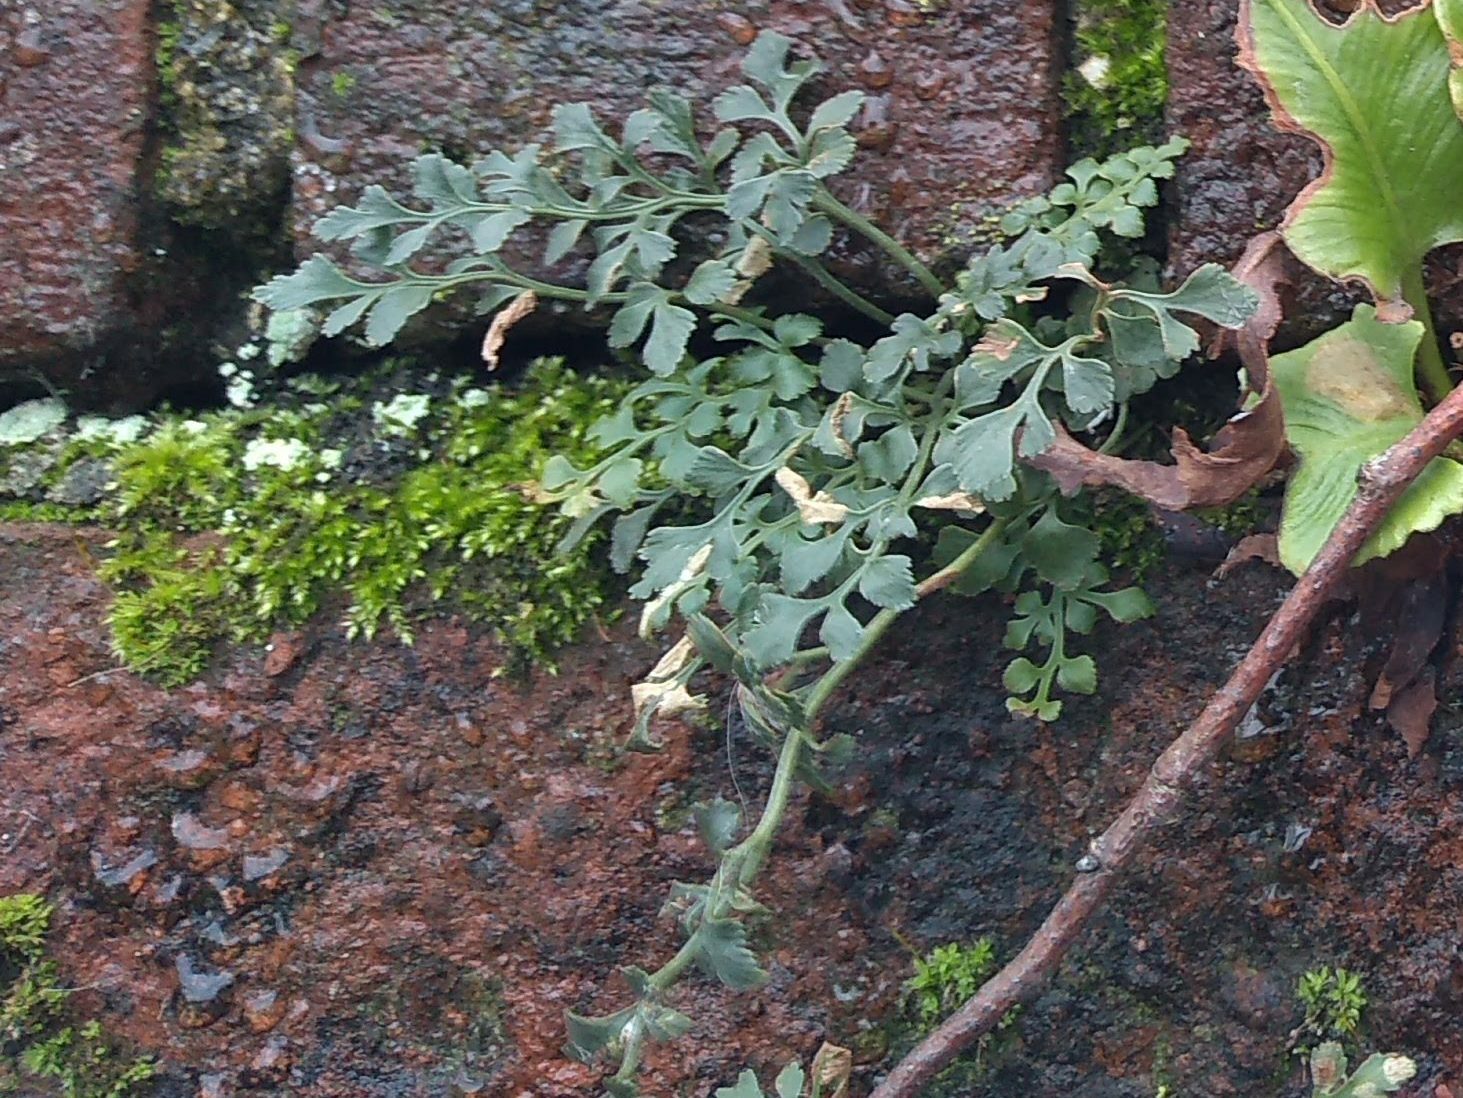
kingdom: Plantae
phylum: Tracheophyta
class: Polypodiopsida
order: Polypodiales
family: Aspleniaceae
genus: Asplenium
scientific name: Asplenium ruta-muraria
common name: Wall-rue
